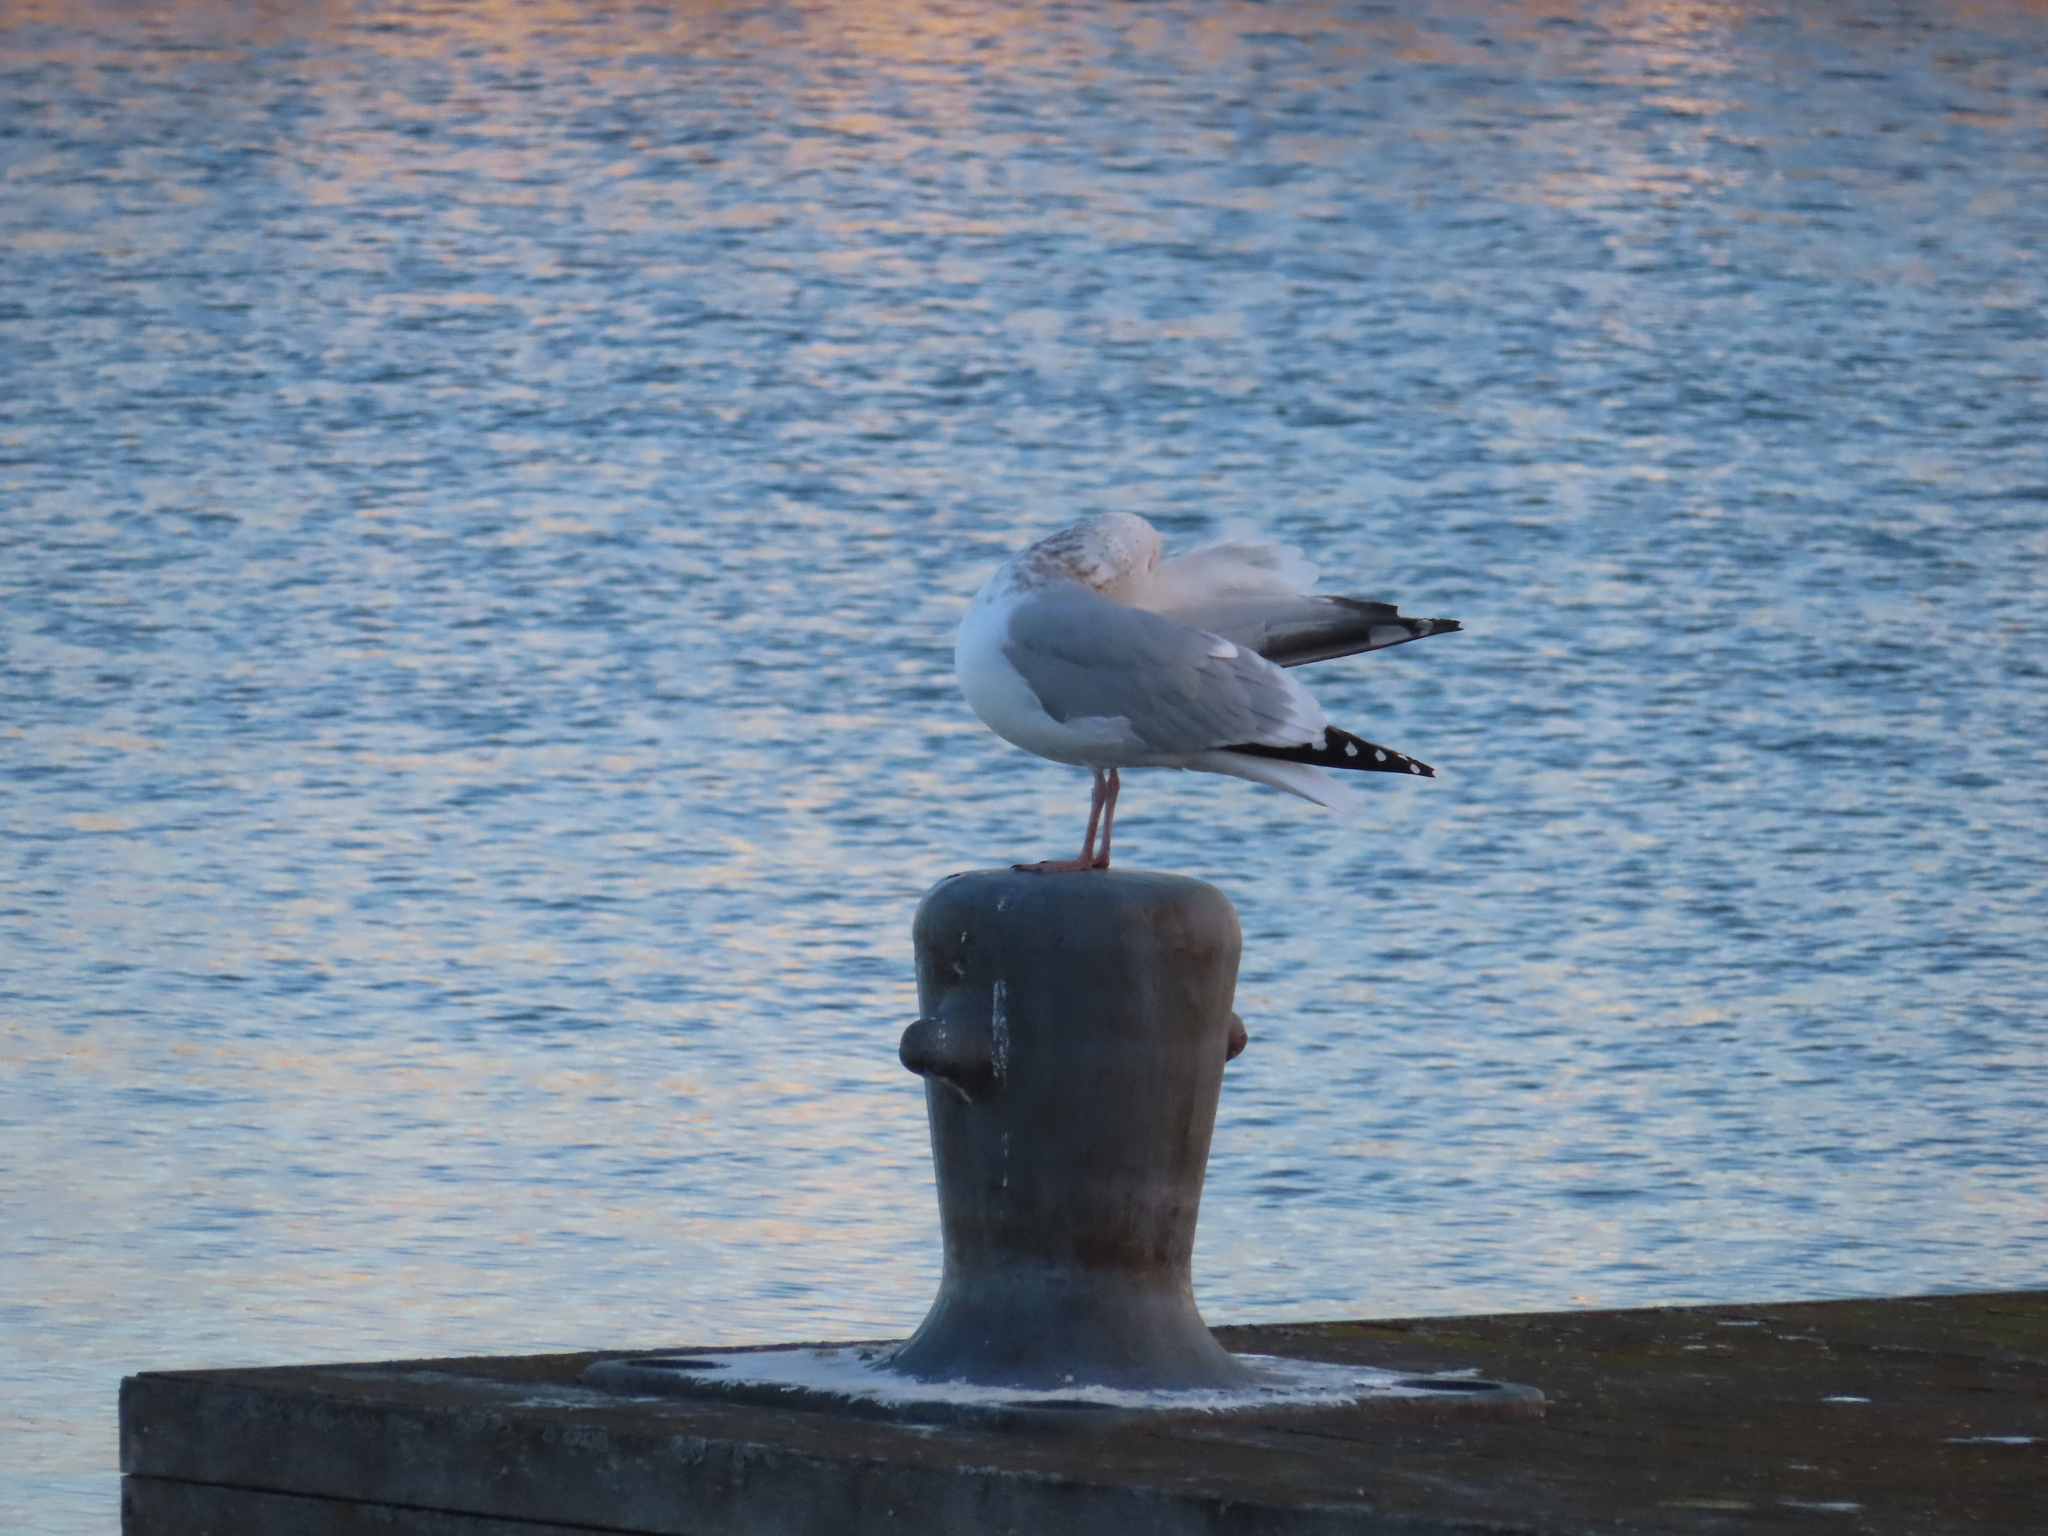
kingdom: Animalia
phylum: Chordata
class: Aves
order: Charadriiformes
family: Laridae
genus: Larus
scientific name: Larus argentatus
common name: Herring gull
